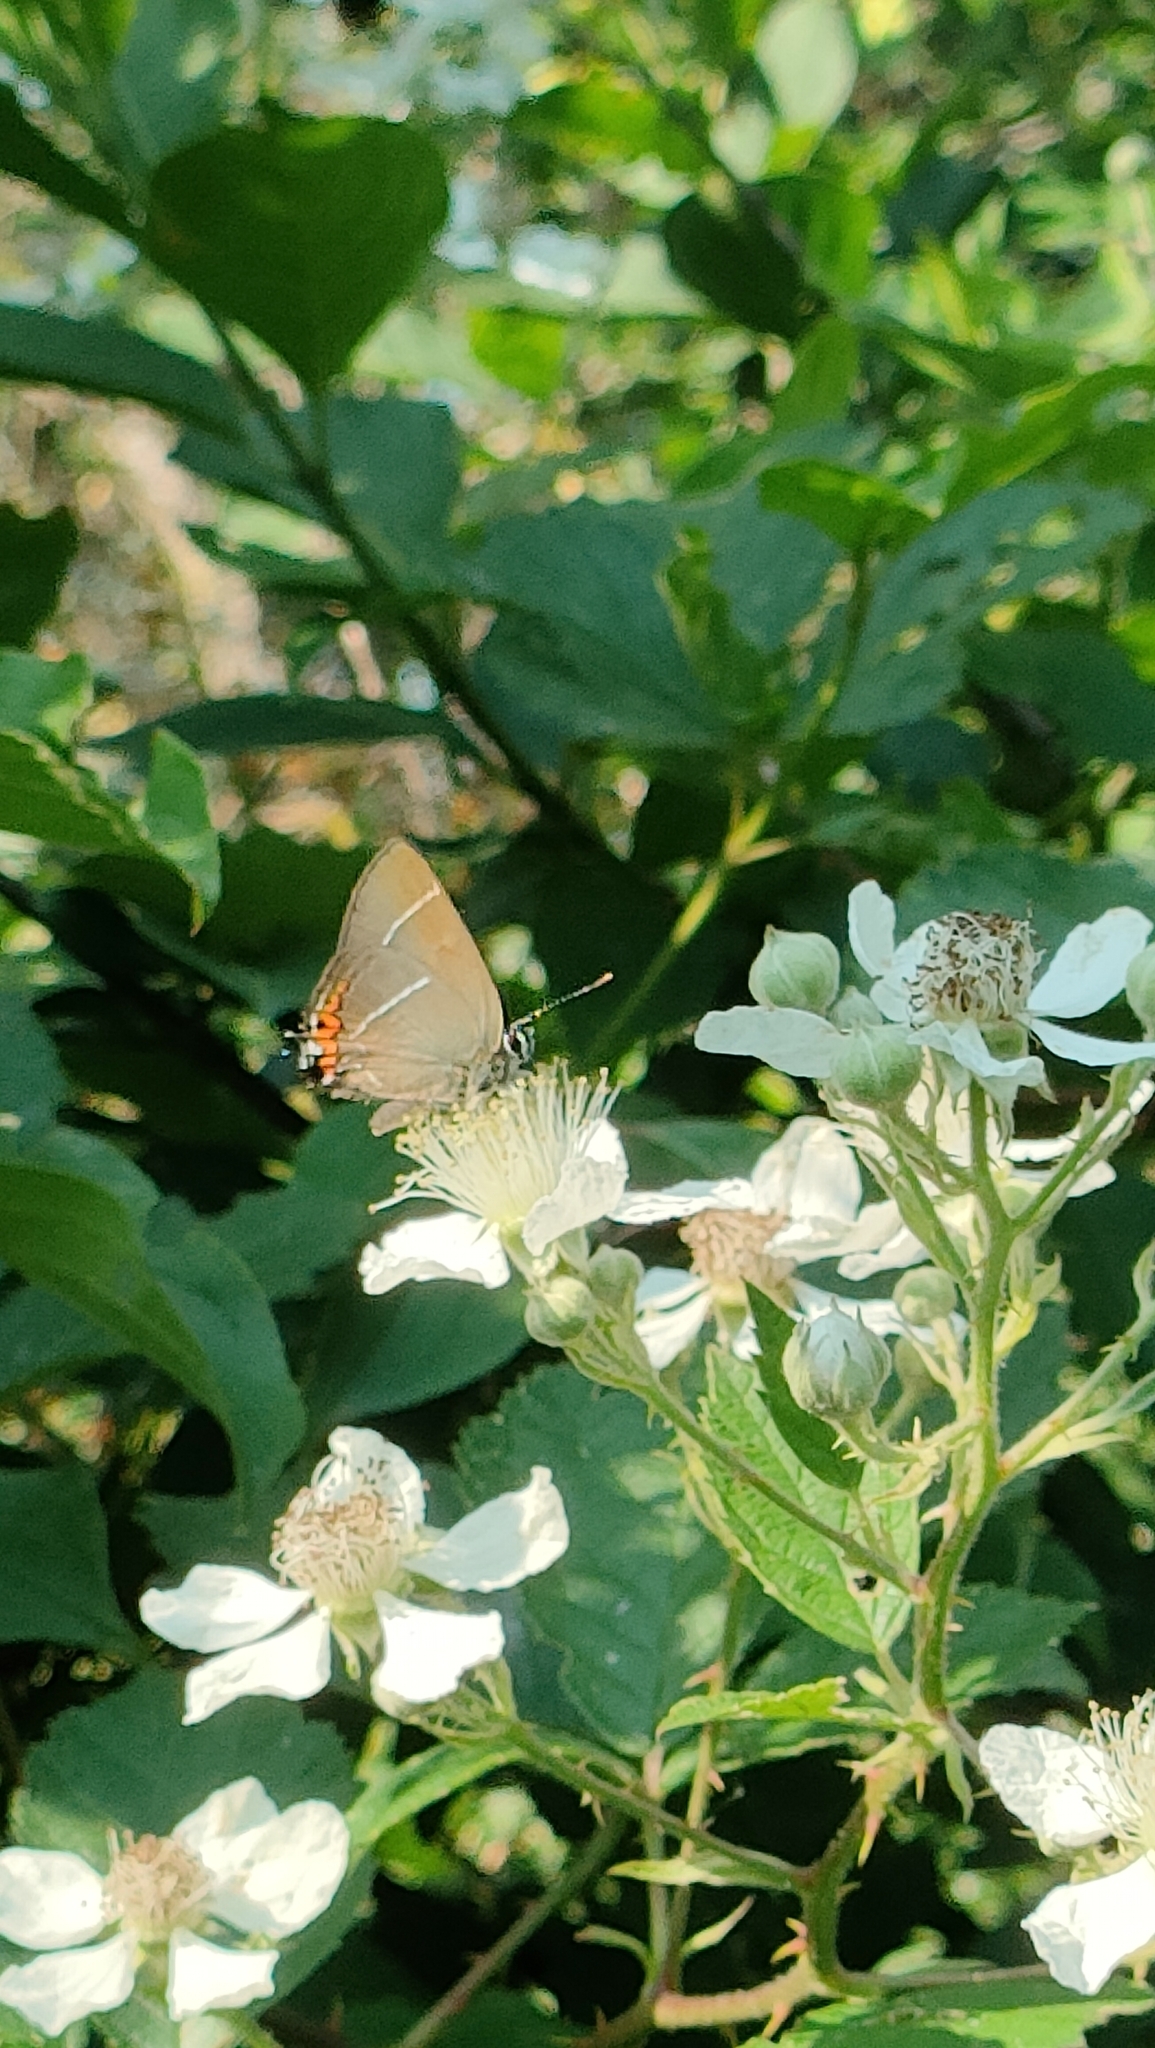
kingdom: Animalia
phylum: Arthropoda
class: Insecta
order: Lepidoptera
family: Lycaenidae
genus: Satyrium
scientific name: Satyrium w-album
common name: White-letter hairstreak
